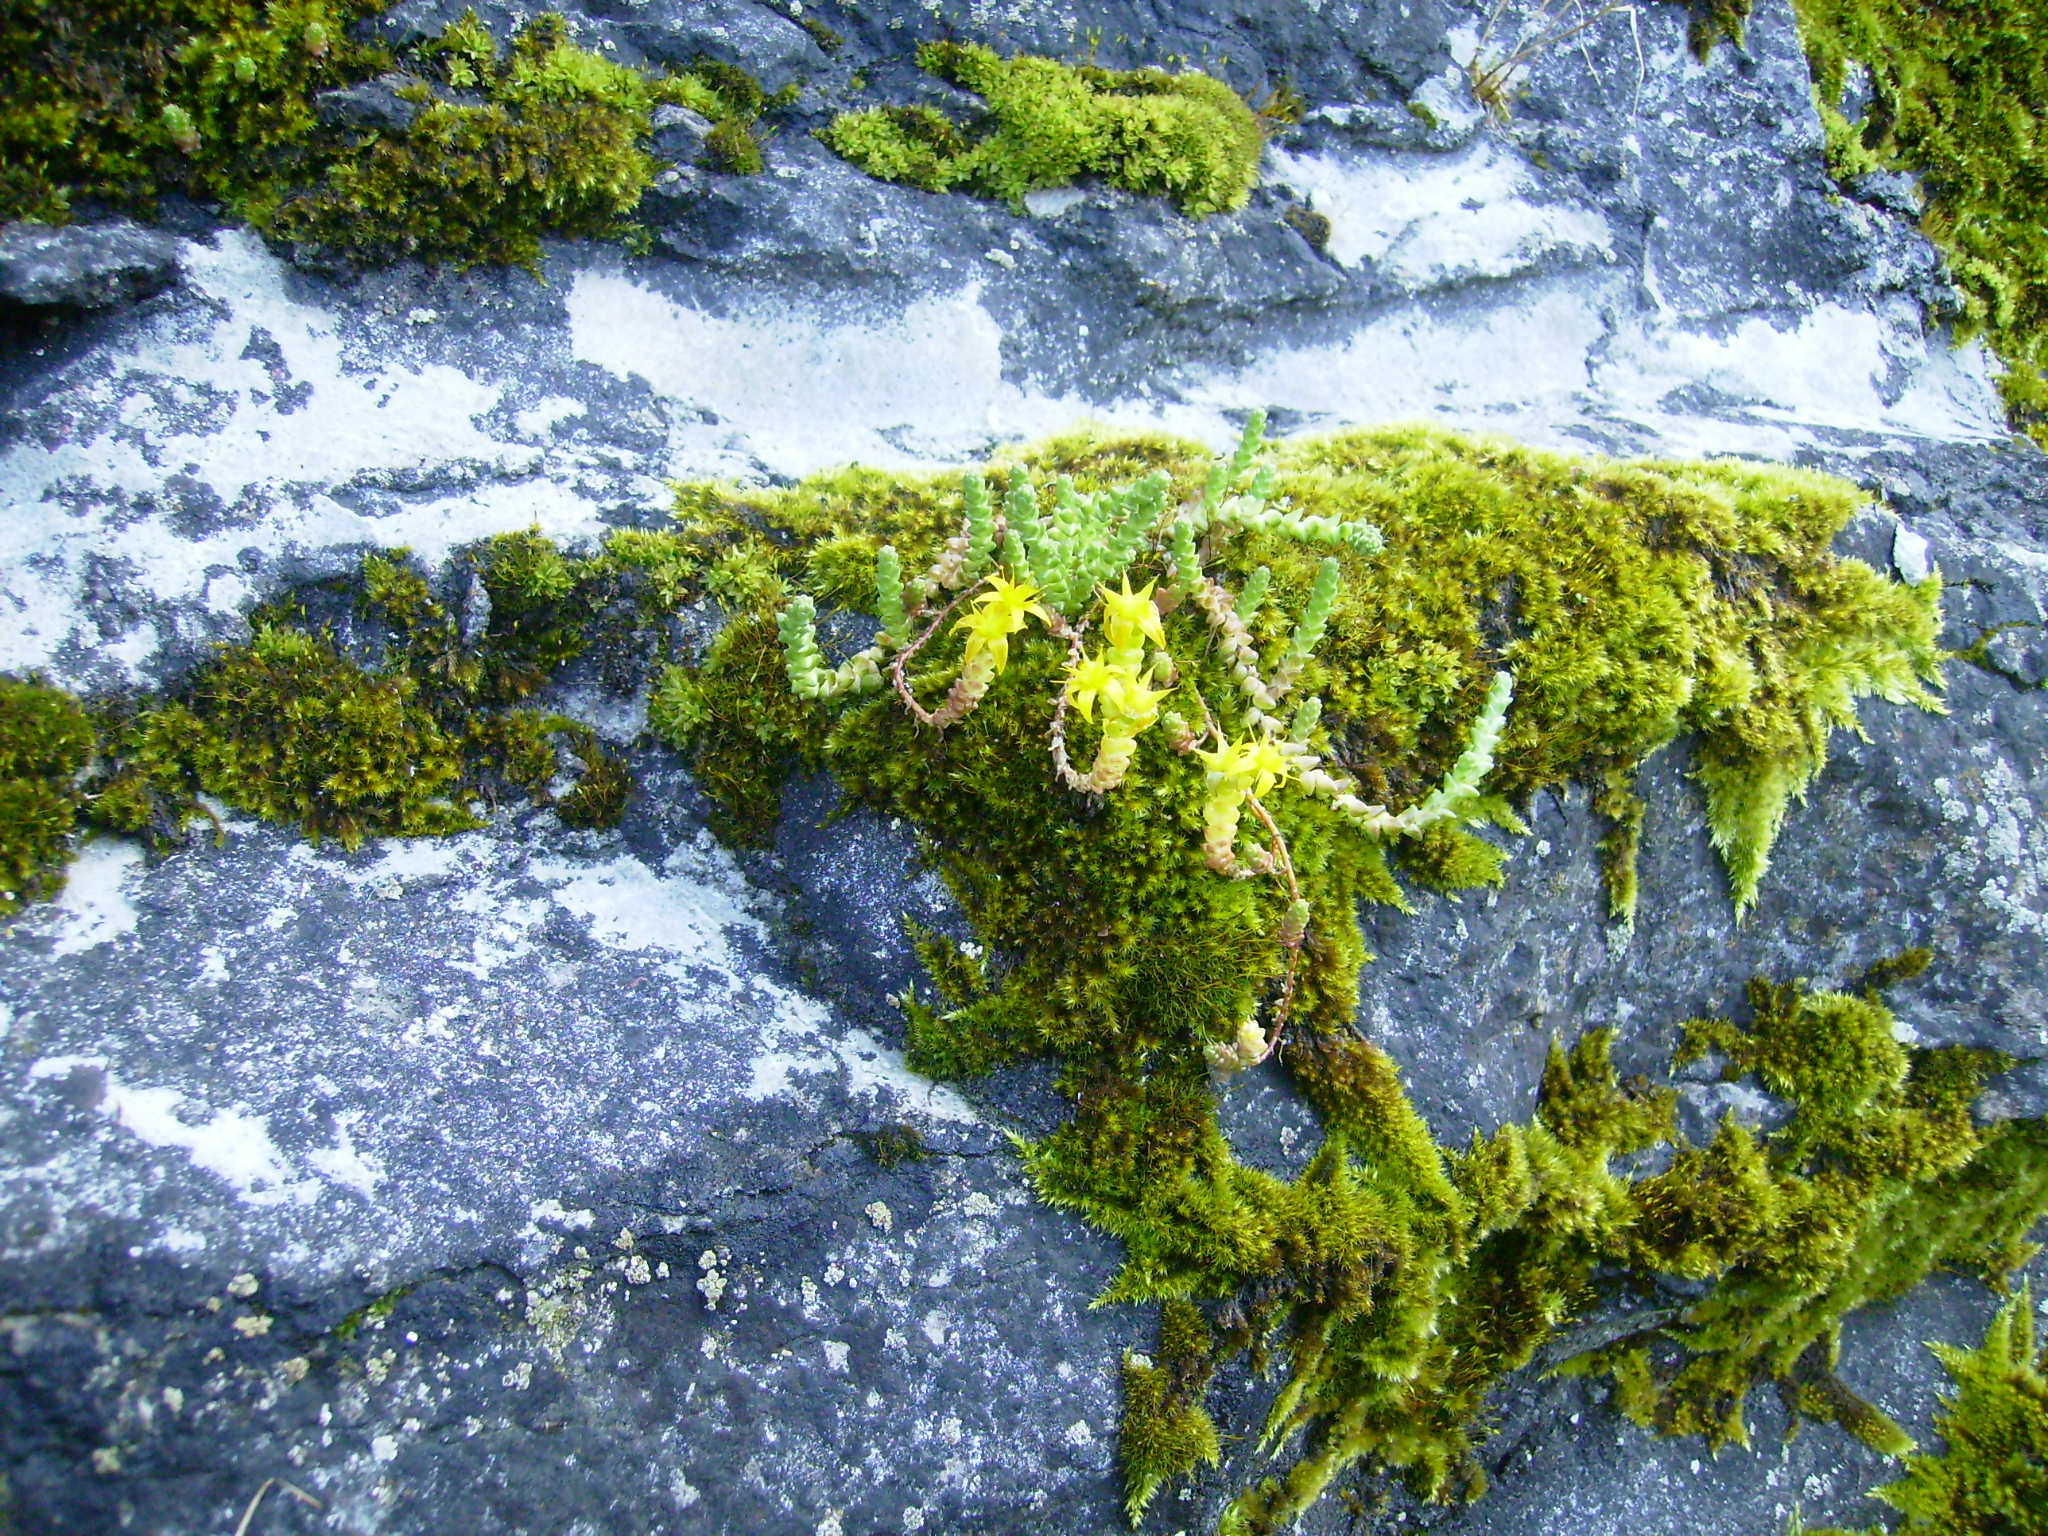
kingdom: Plantae
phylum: Tracheophyta
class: Magnoliopsida
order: Saxifragales
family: Crassulaceae
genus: Sedum
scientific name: Sedum acre
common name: Biting stonecrop
